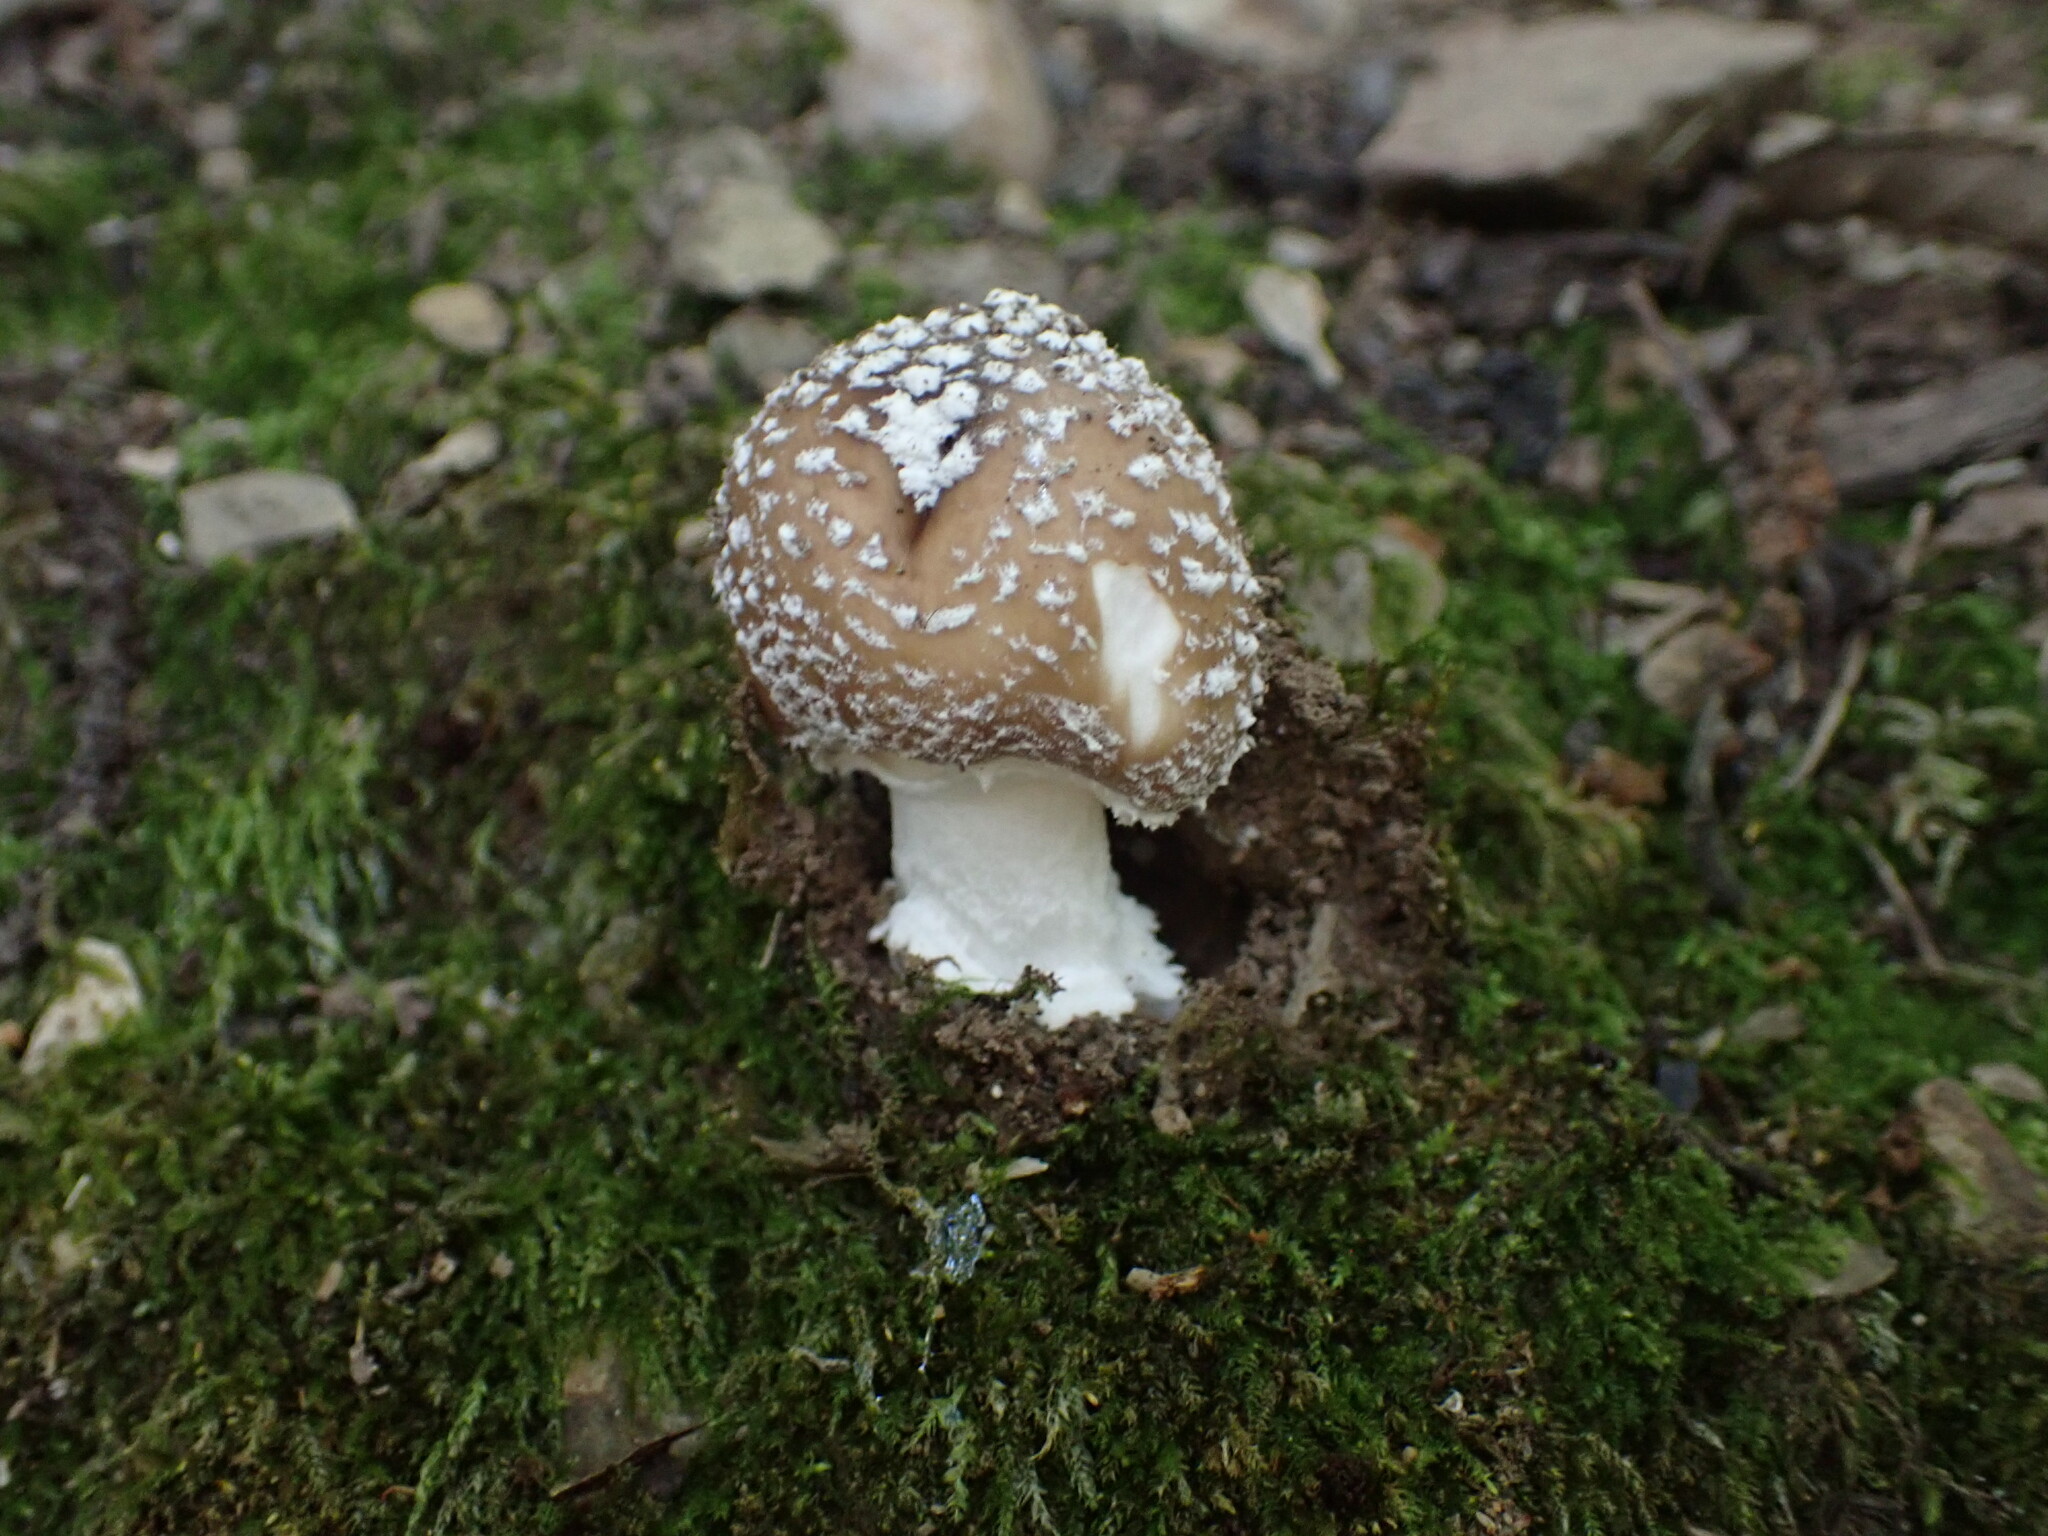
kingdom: Fungi
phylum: Basidiomycota
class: Agaricomycetes
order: Agaricales
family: Amanitaceae
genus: Amanita
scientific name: Amanita pantherina
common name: Panthercap
